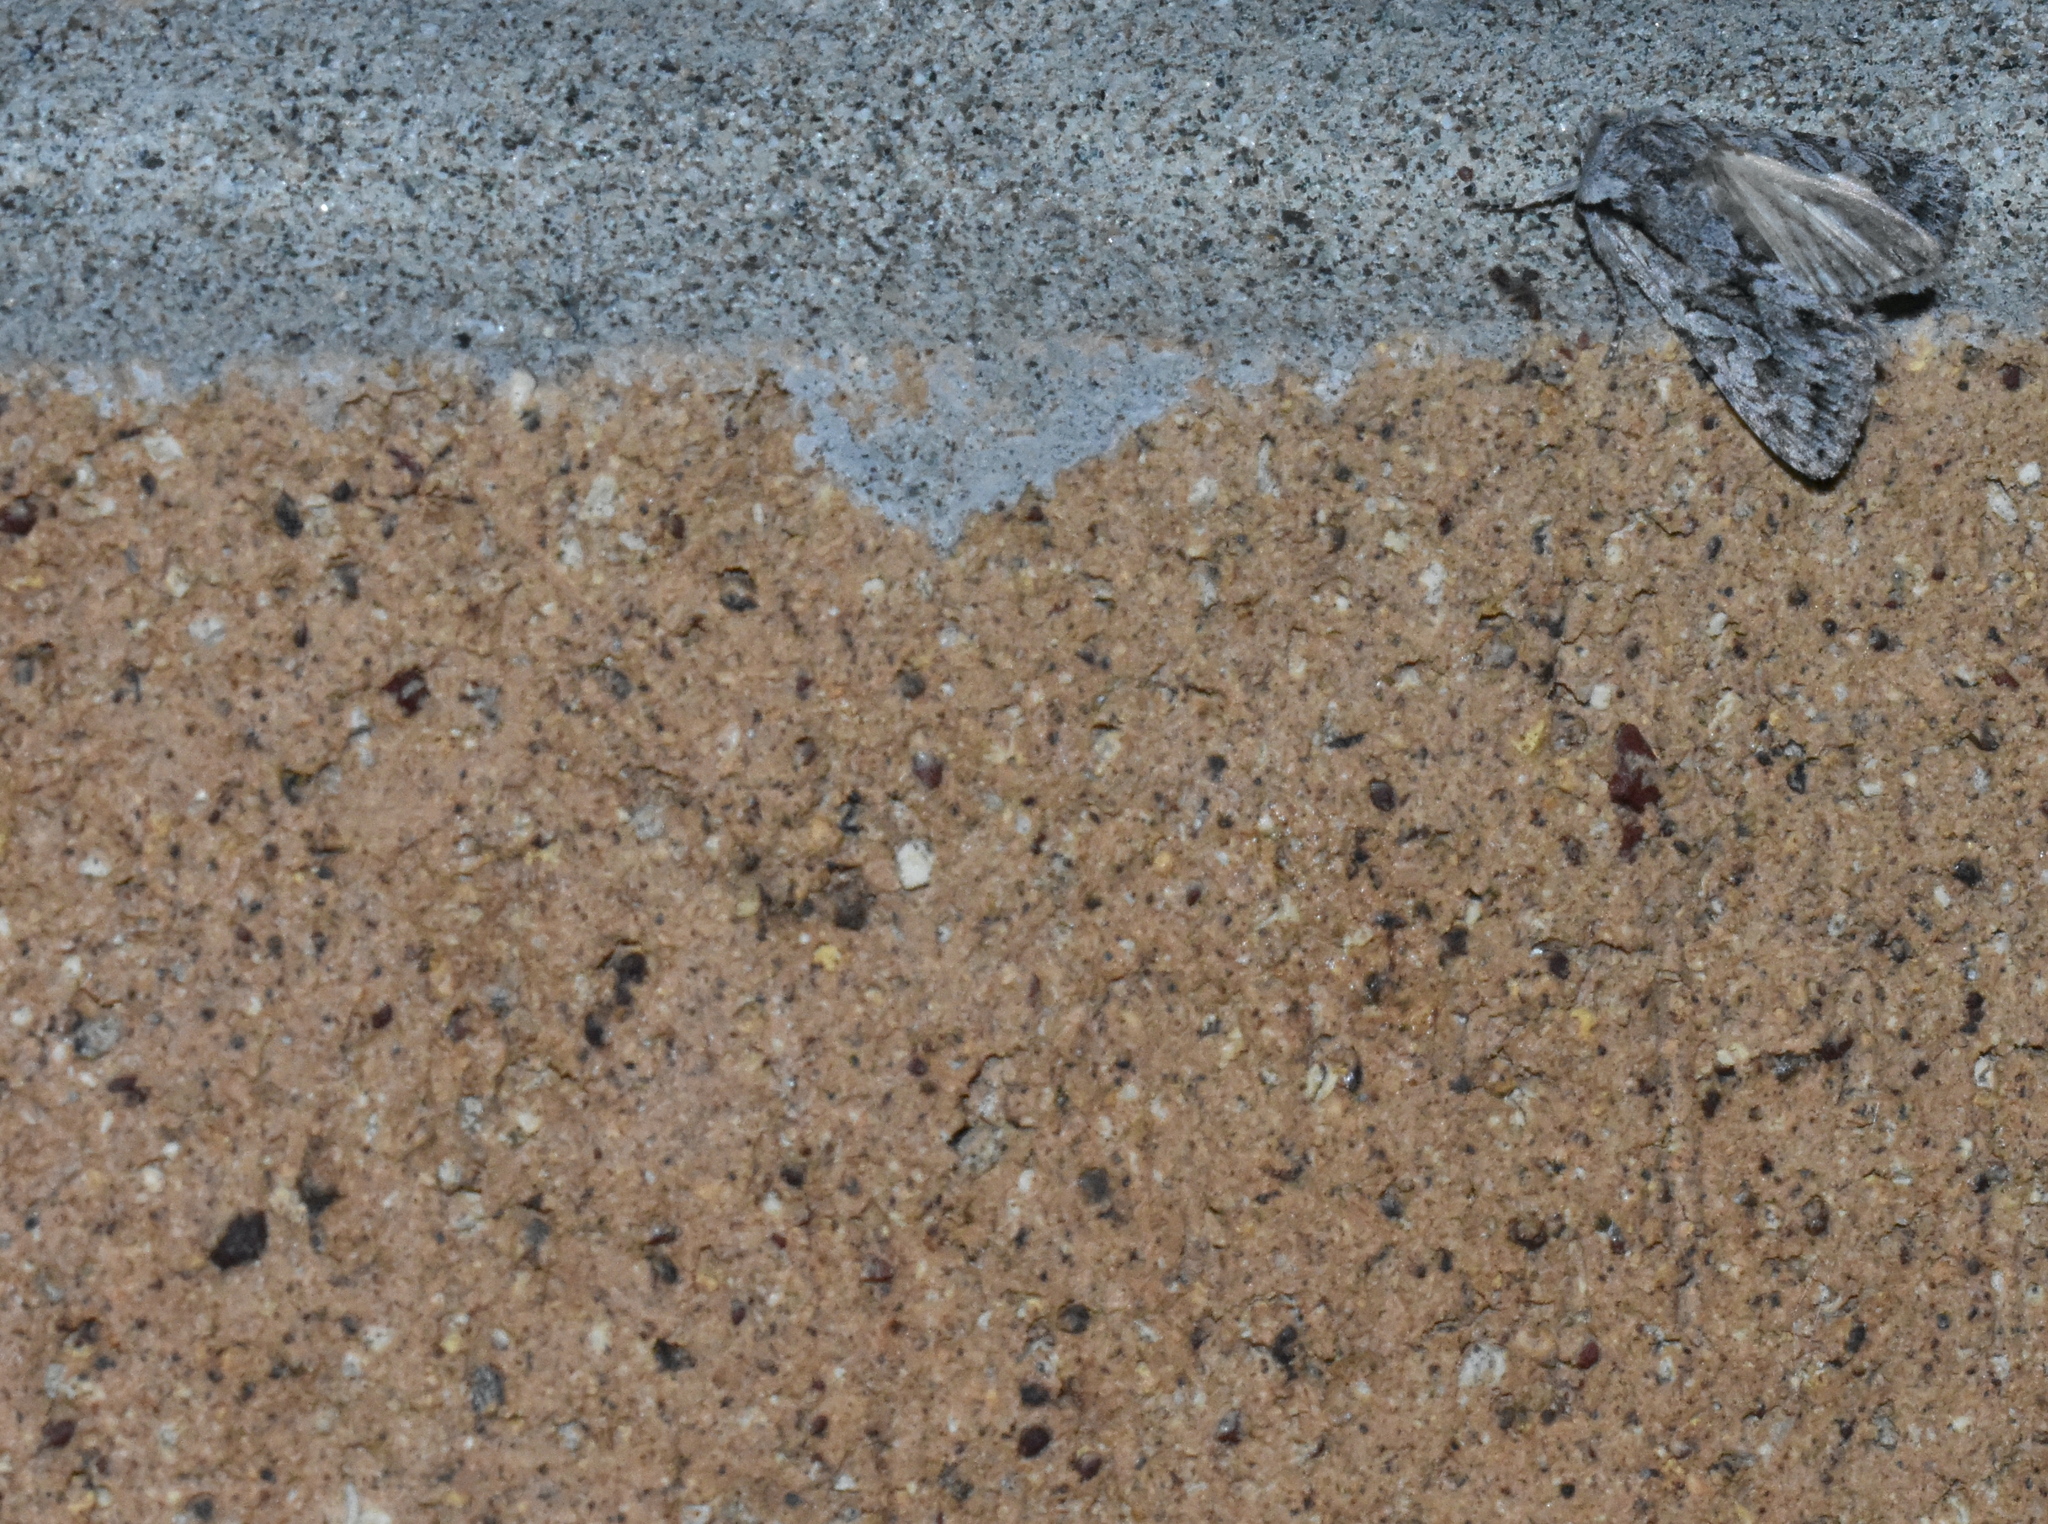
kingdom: Animalia
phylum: Arthropoda
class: Insecta
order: Lepidoptera
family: Noctuidae
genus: Lacinipolia
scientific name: Lacinipolia patalis
